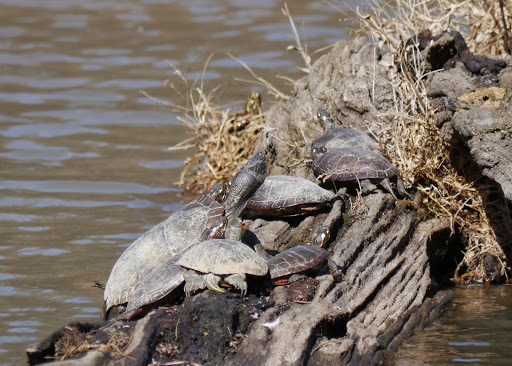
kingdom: Animalia
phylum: Chordata
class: Testudines
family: Emydidae
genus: Chrysemys
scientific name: Chrysemys picta
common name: Painted turtle
